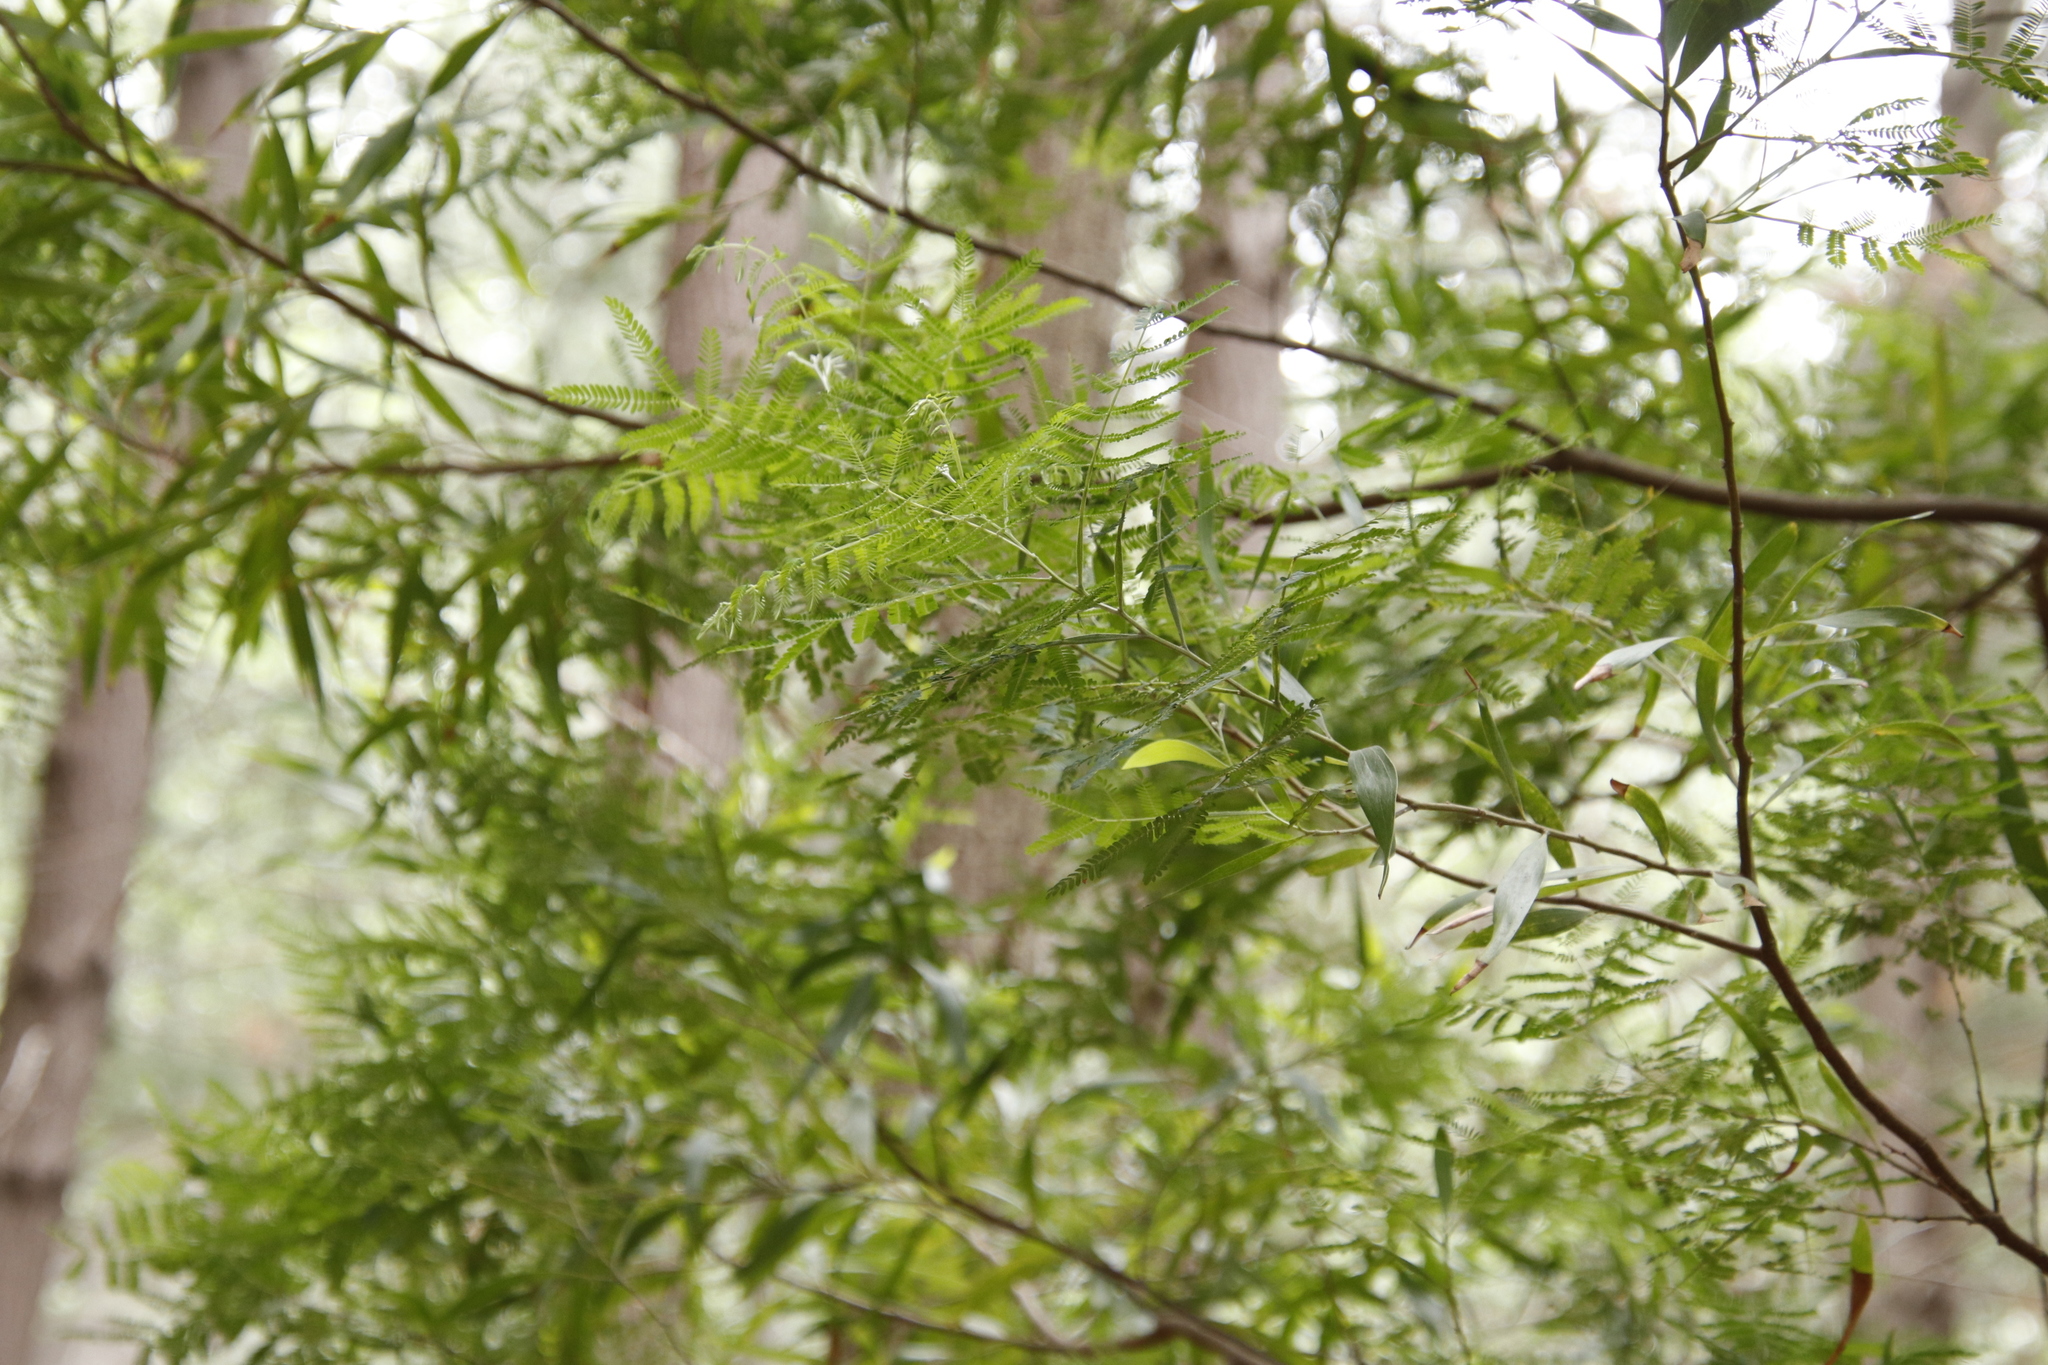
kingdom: Plantae
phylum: Tracheophyta
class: Magnoliopsida
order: Fabales
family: Fabaceae
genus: Acacia
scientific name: Acacia melanoxylon
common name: Blackwood
